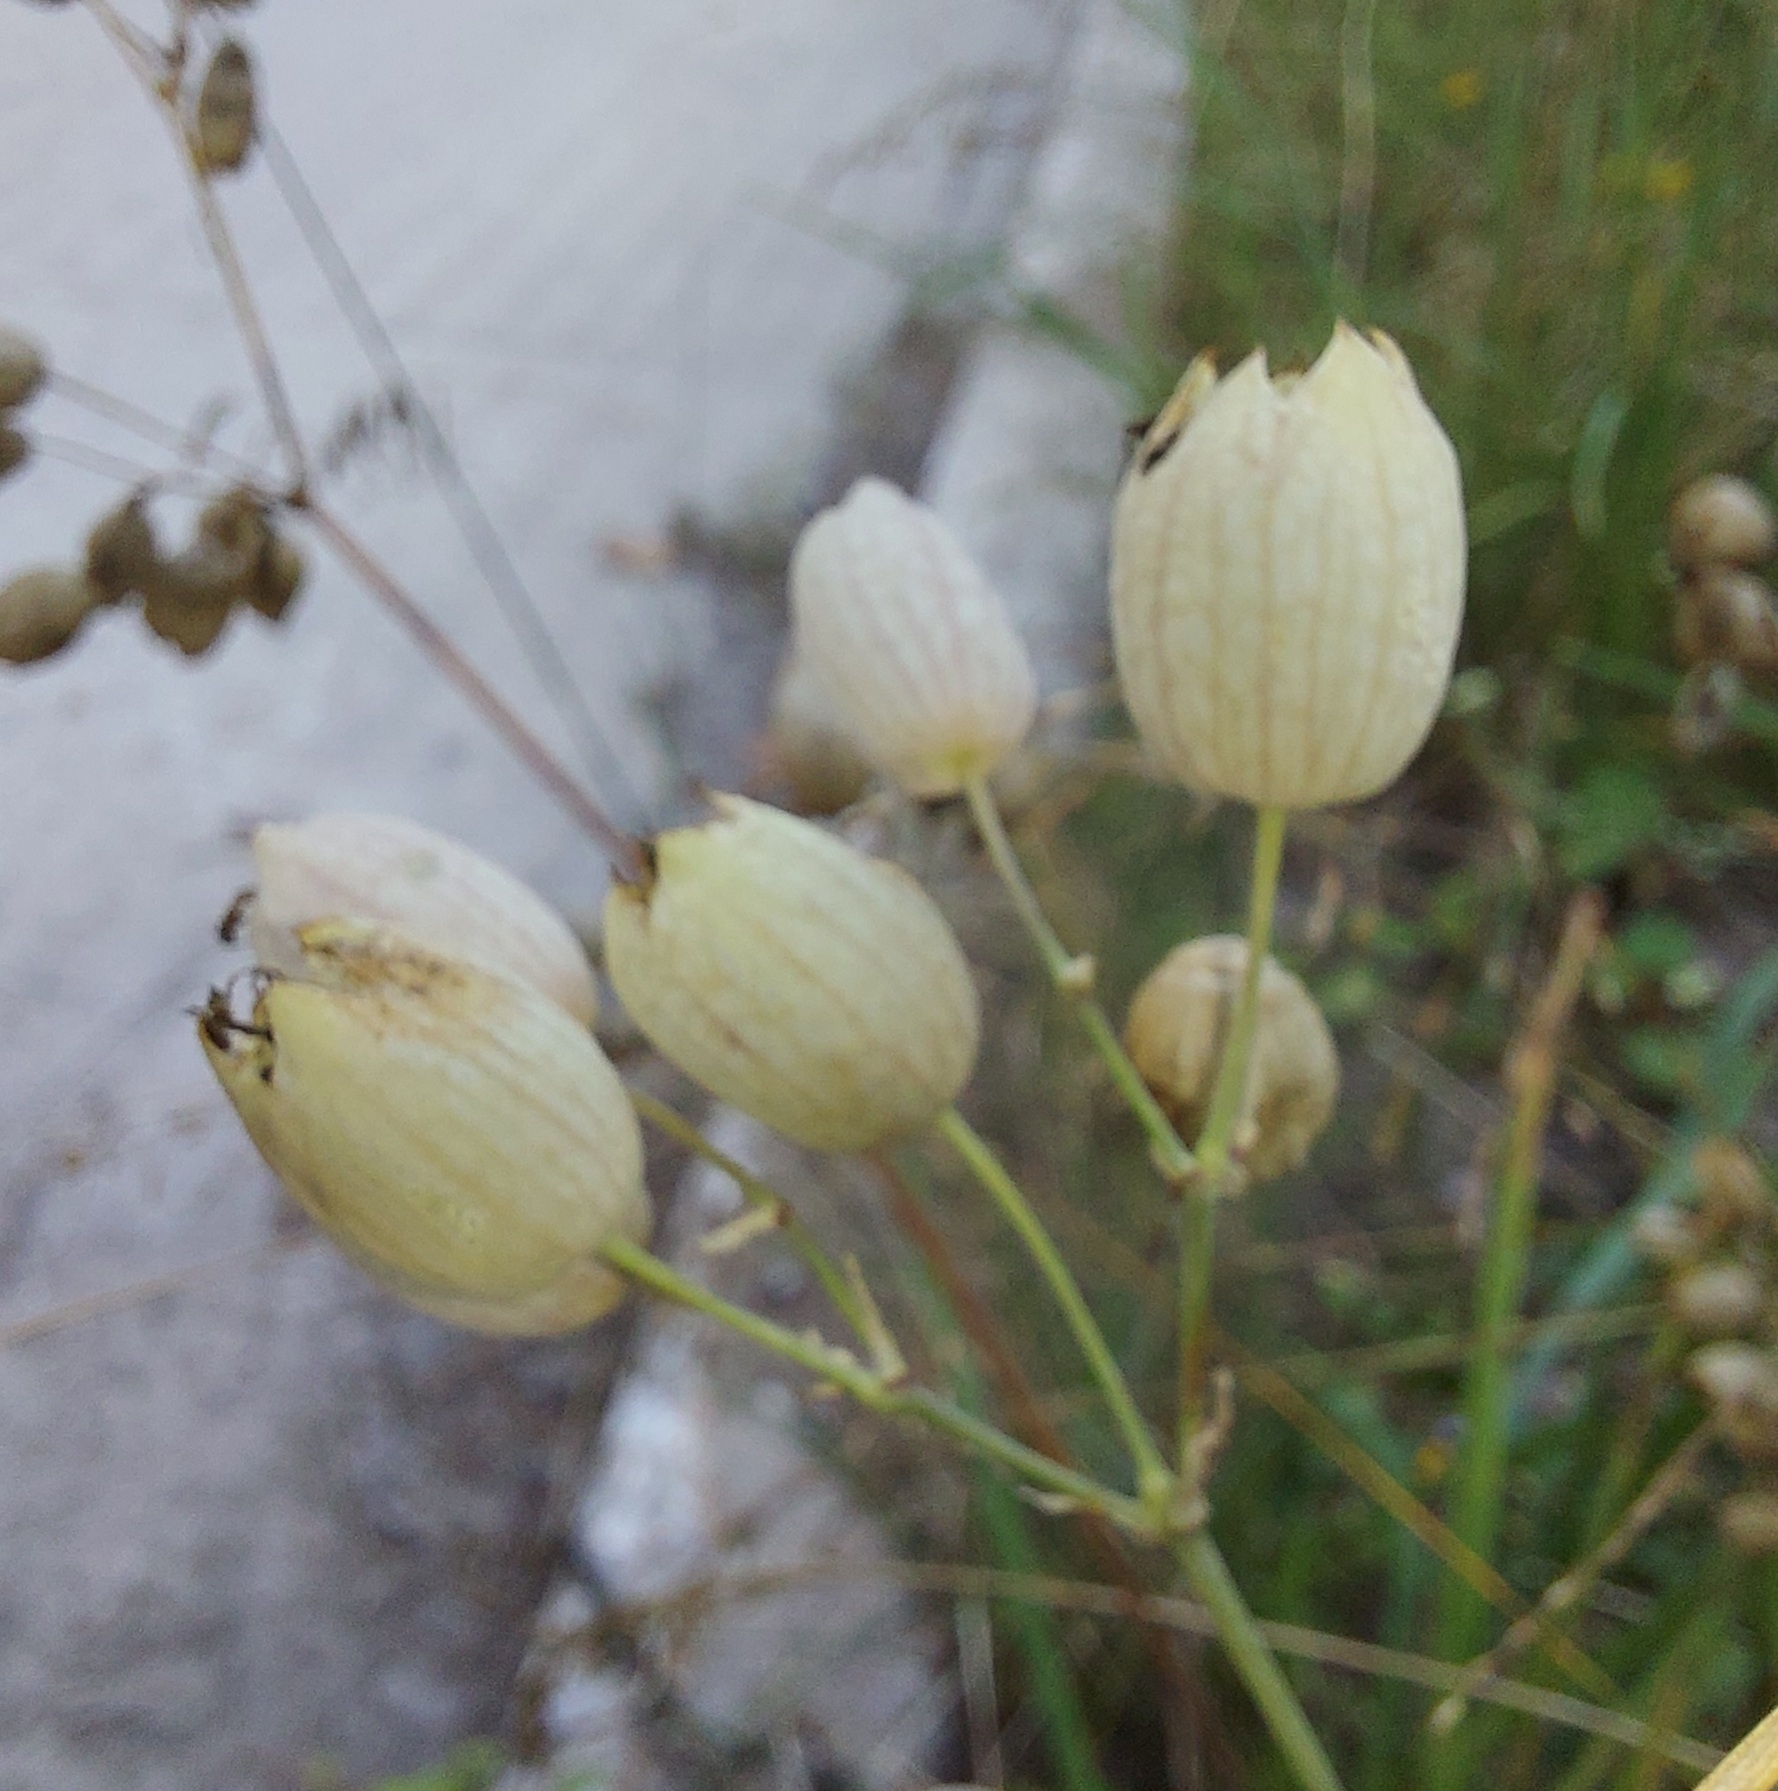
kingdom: Plantae
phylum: Tracheophyta
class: Magnoliopsida
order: Caryophyllales
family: Caryophyllaceae
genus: Silene
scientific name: Silene vulgaris
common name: Bladder campion
